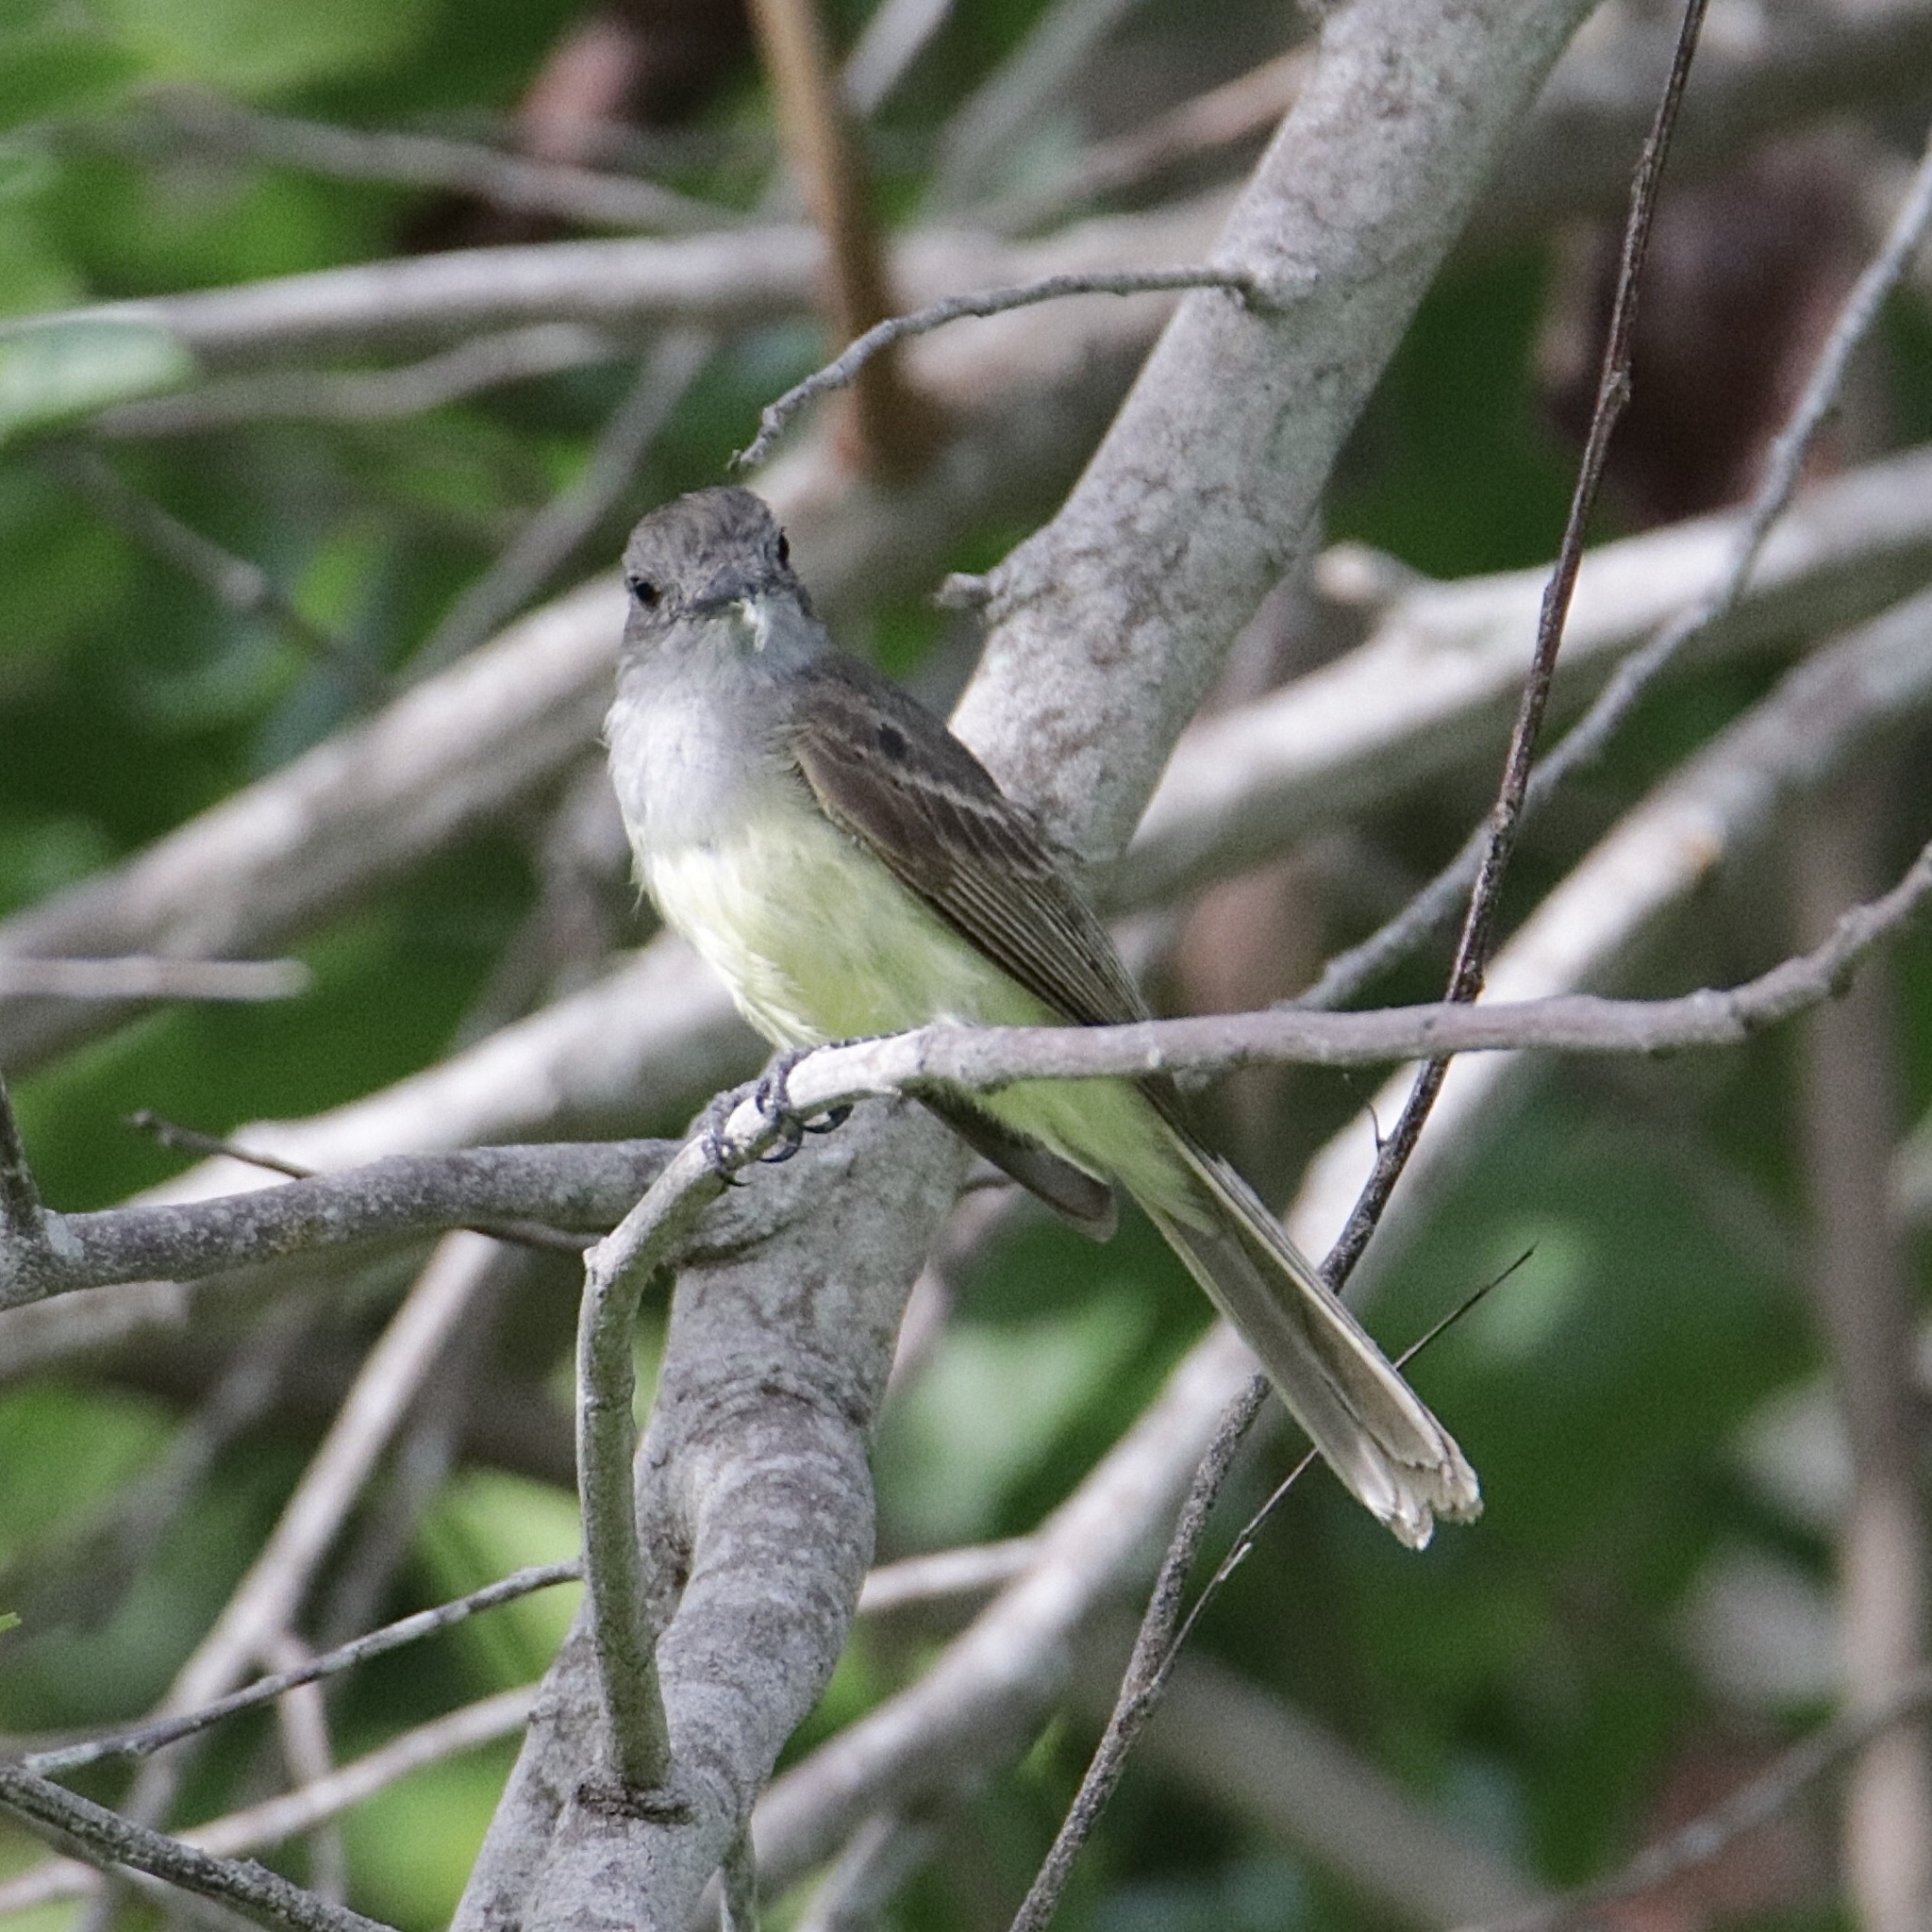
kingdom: Animalia
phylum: Chordata
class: Aves
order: Passeriformes
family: Tyrannidae
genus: Myiarchus
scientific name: Myiarchus panamensis
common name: Panama flycatcher
